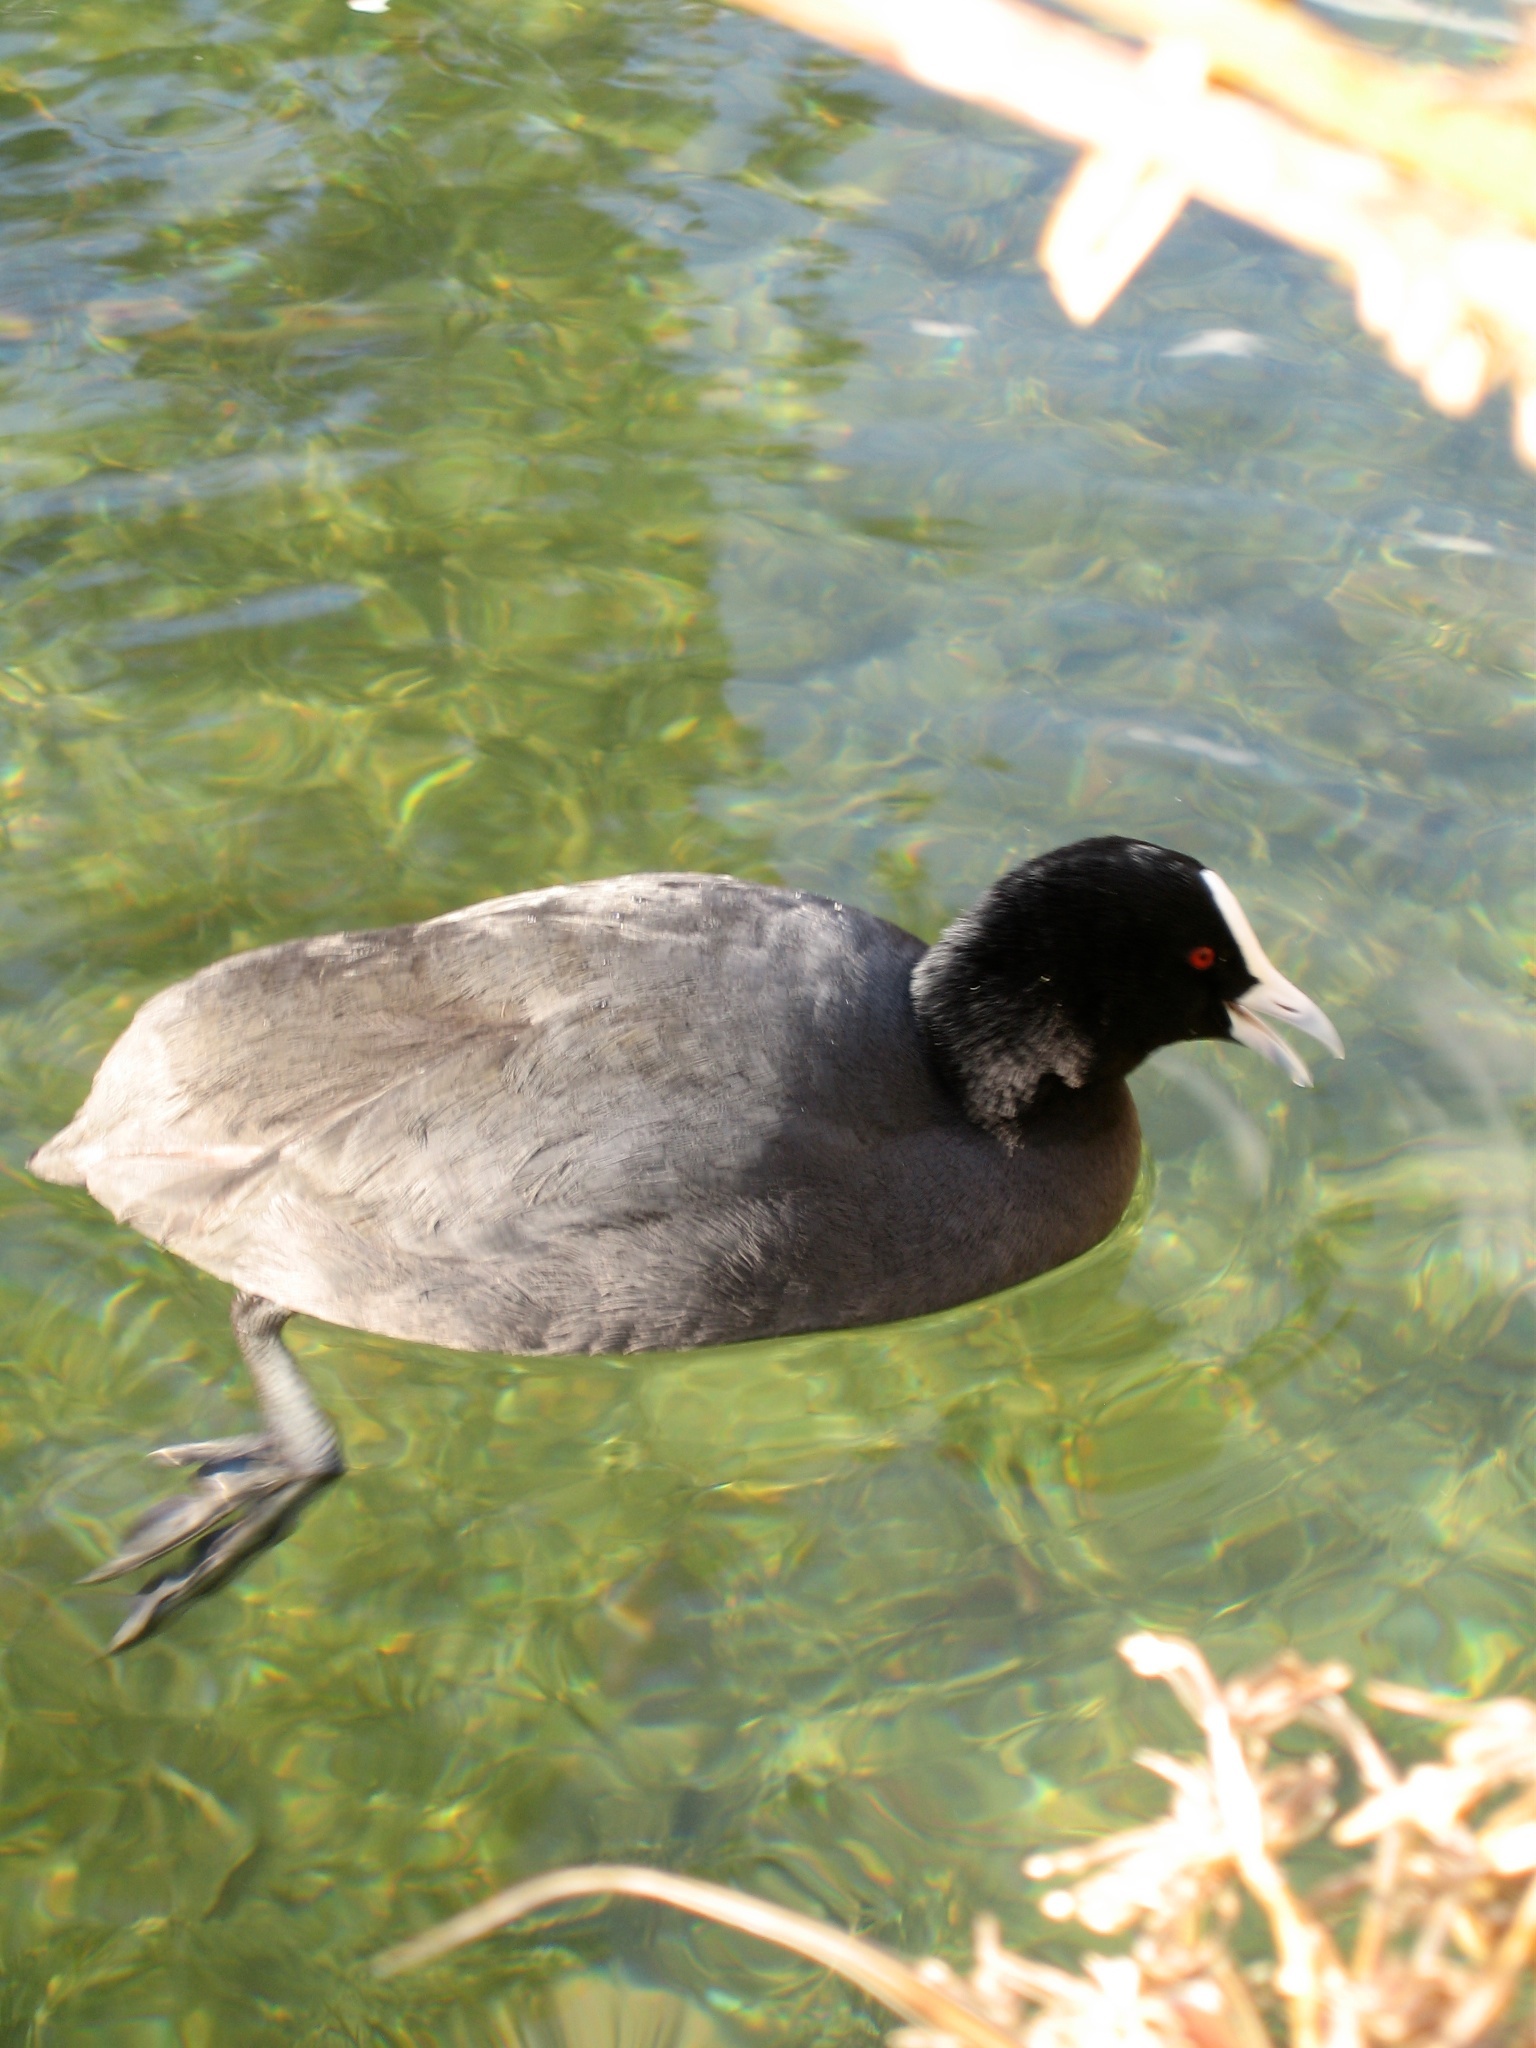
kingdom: Animalia
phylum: Chordata
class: Aves
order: Gruiformes
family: Rallidae
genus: Fulica
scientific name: Fulica atra
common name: Eurasian coot
